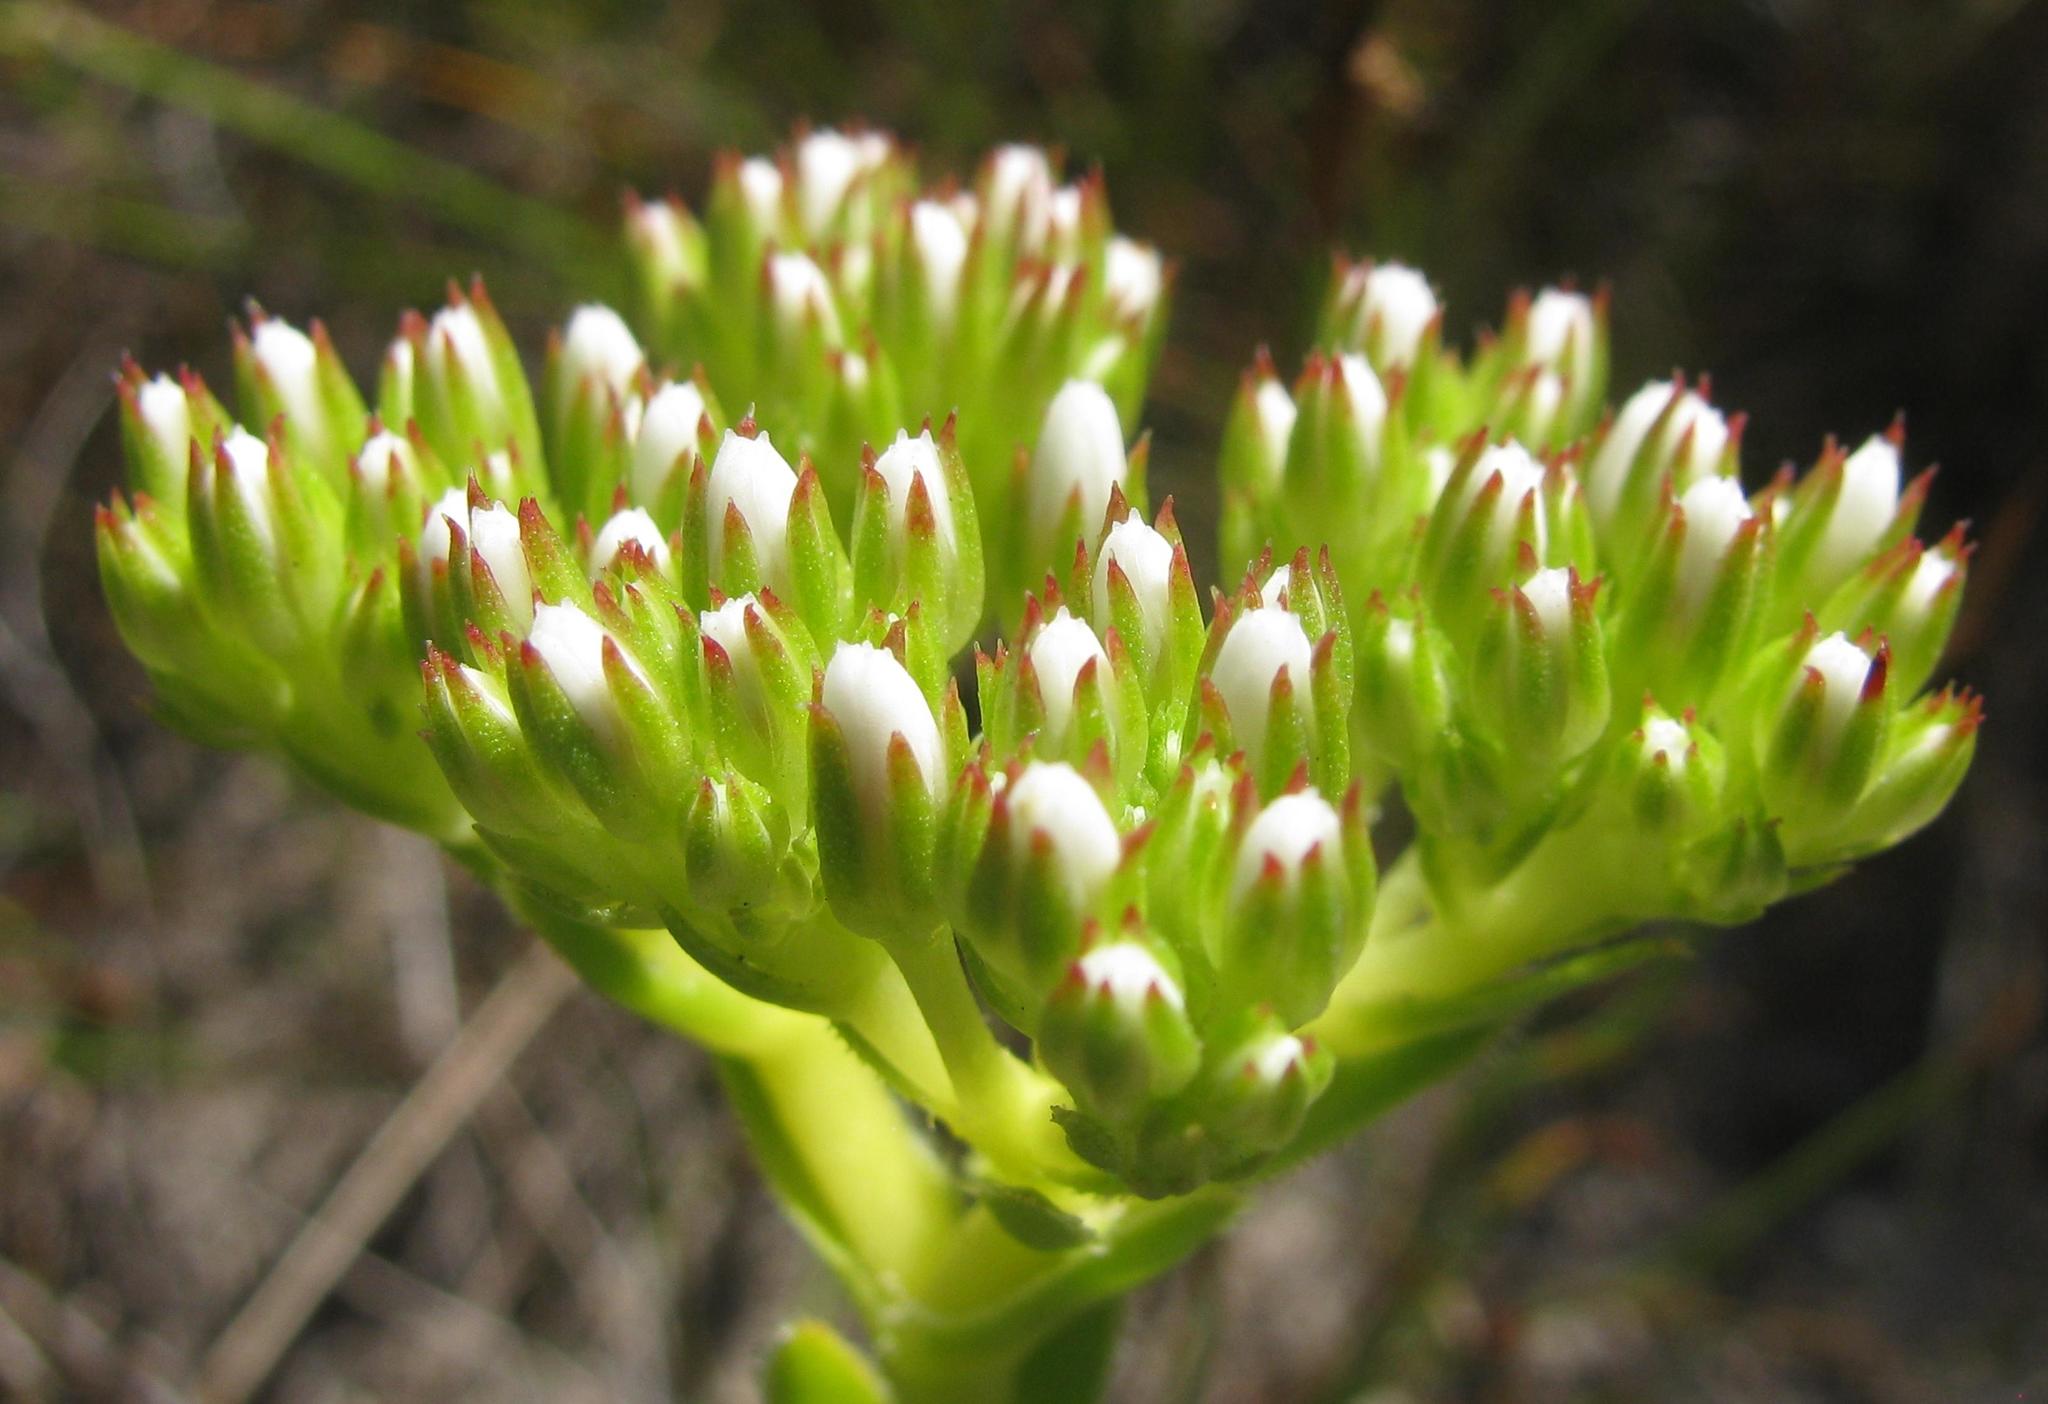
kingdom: Plantae
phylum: Tracheophyta
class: Magnoliopsida
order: Saxifragales
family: Crassulaceae
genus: Crassula
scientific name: Crassula fallax
